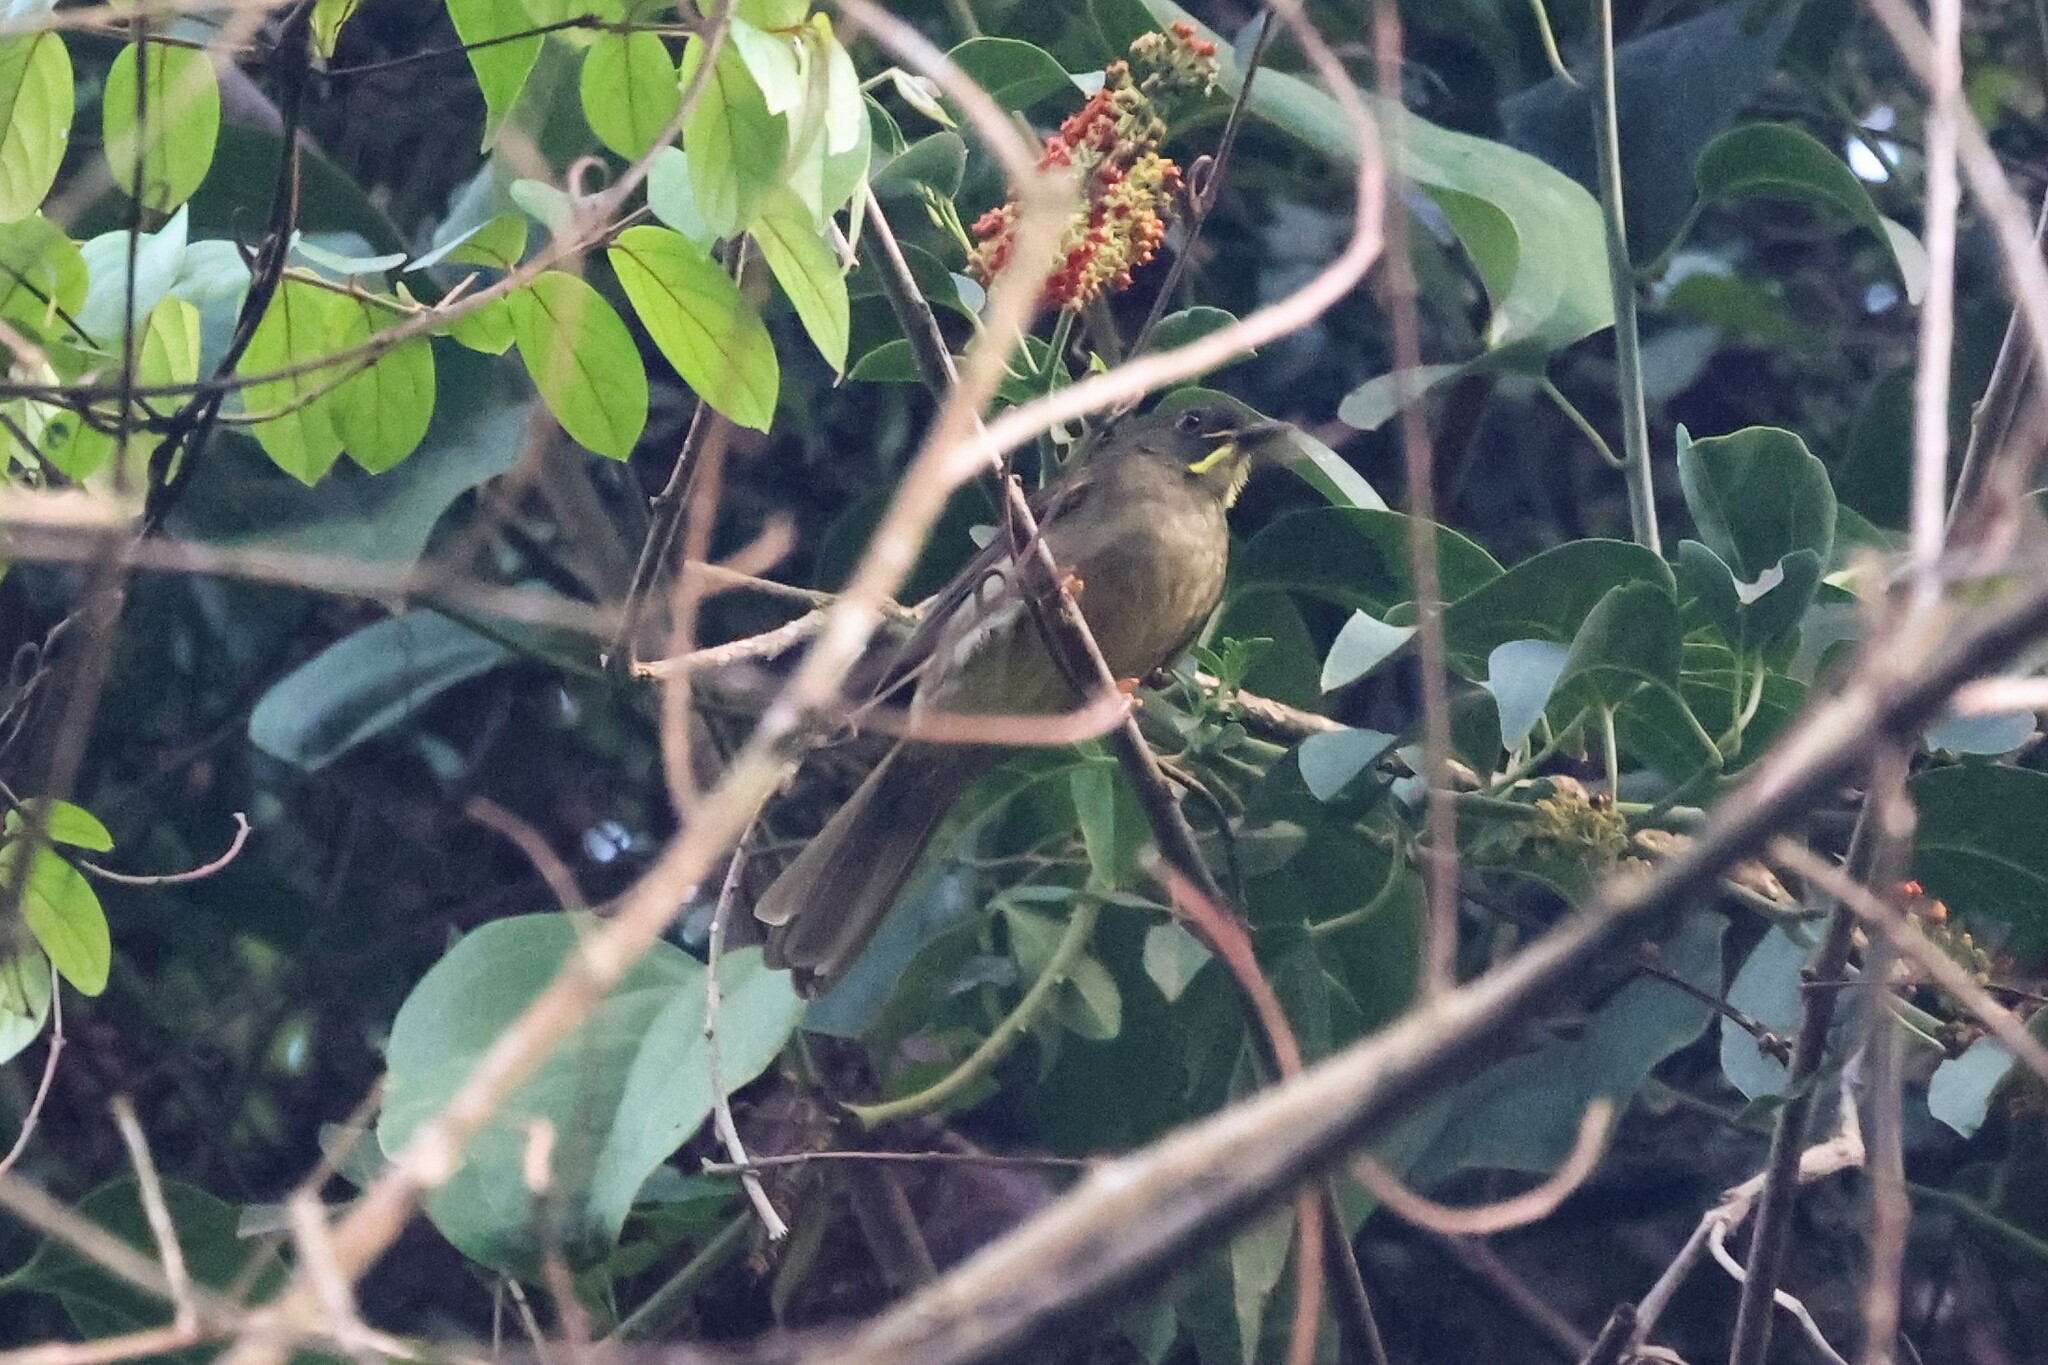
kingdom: Animalia
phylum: Chordata
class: Aves
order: Passeriformes
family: Pycnonotidae
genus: Eurillas
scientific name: Eurillas latirostris
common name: Yellow-whiskered greenbul
